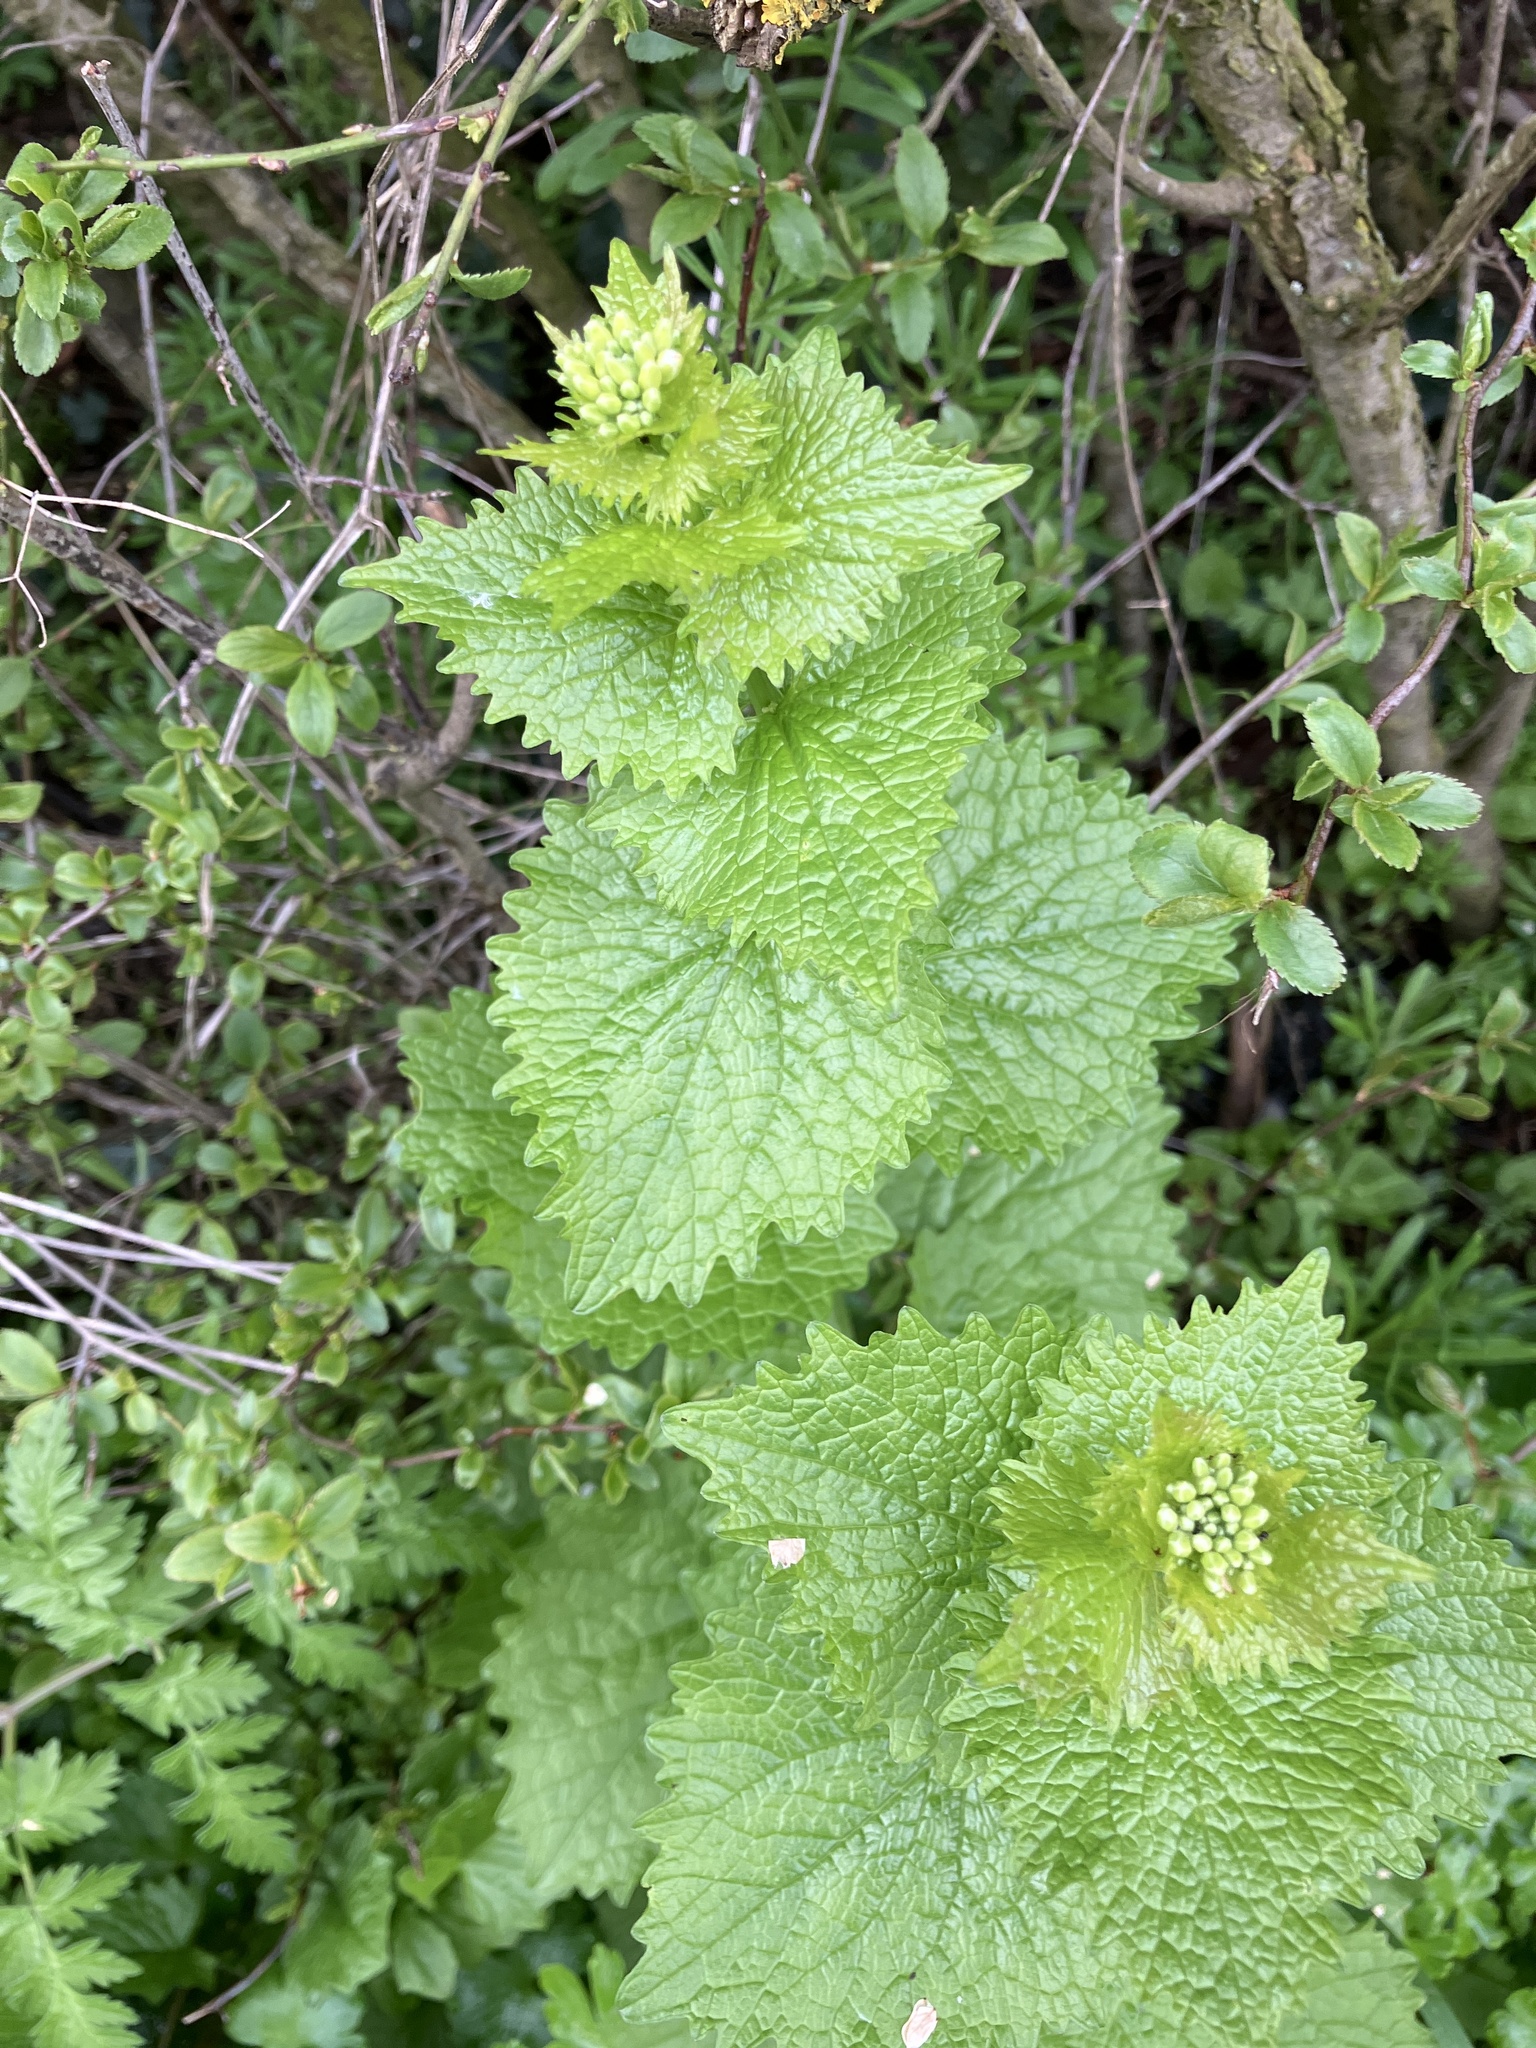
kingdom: Plantae
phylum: Tracheophyta
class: Magnoliopsida
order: Brassicales
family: Brassicaceae
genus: Alliaria
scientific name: Alliaria petiolata
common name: Garlic mustard
